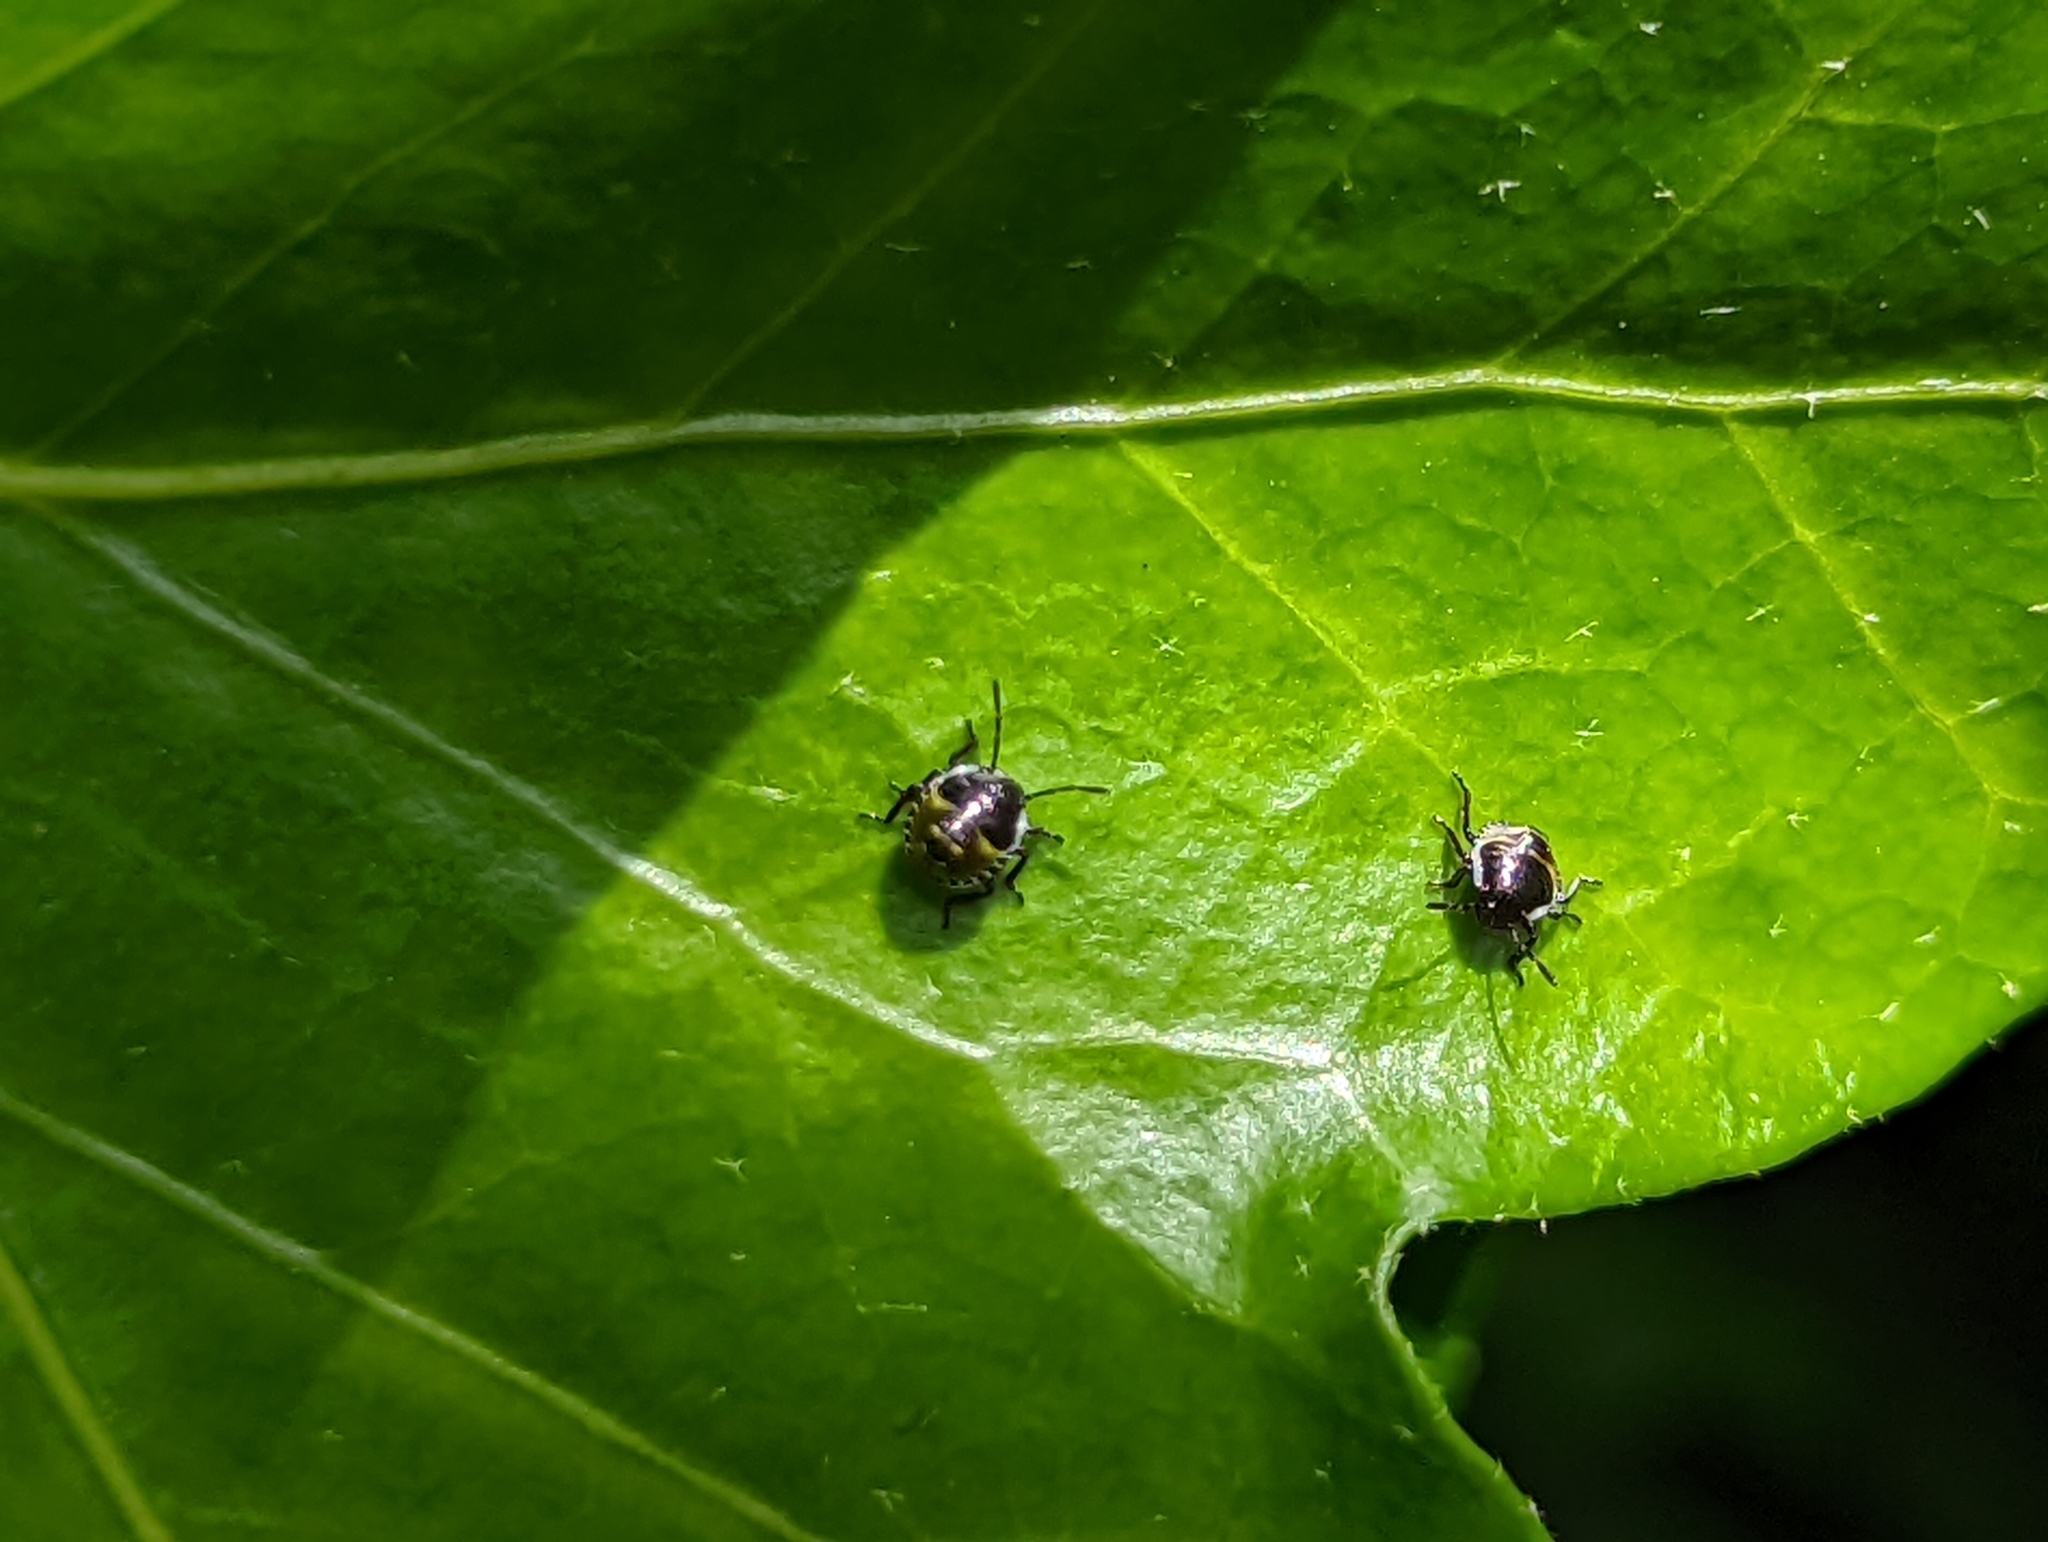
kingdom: Animalia
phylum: Arthropoda
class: Insecta
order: Hemiptera
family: Pentatomidae
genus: Palomena
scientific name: Palomena prasina
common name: Green shieldbug
